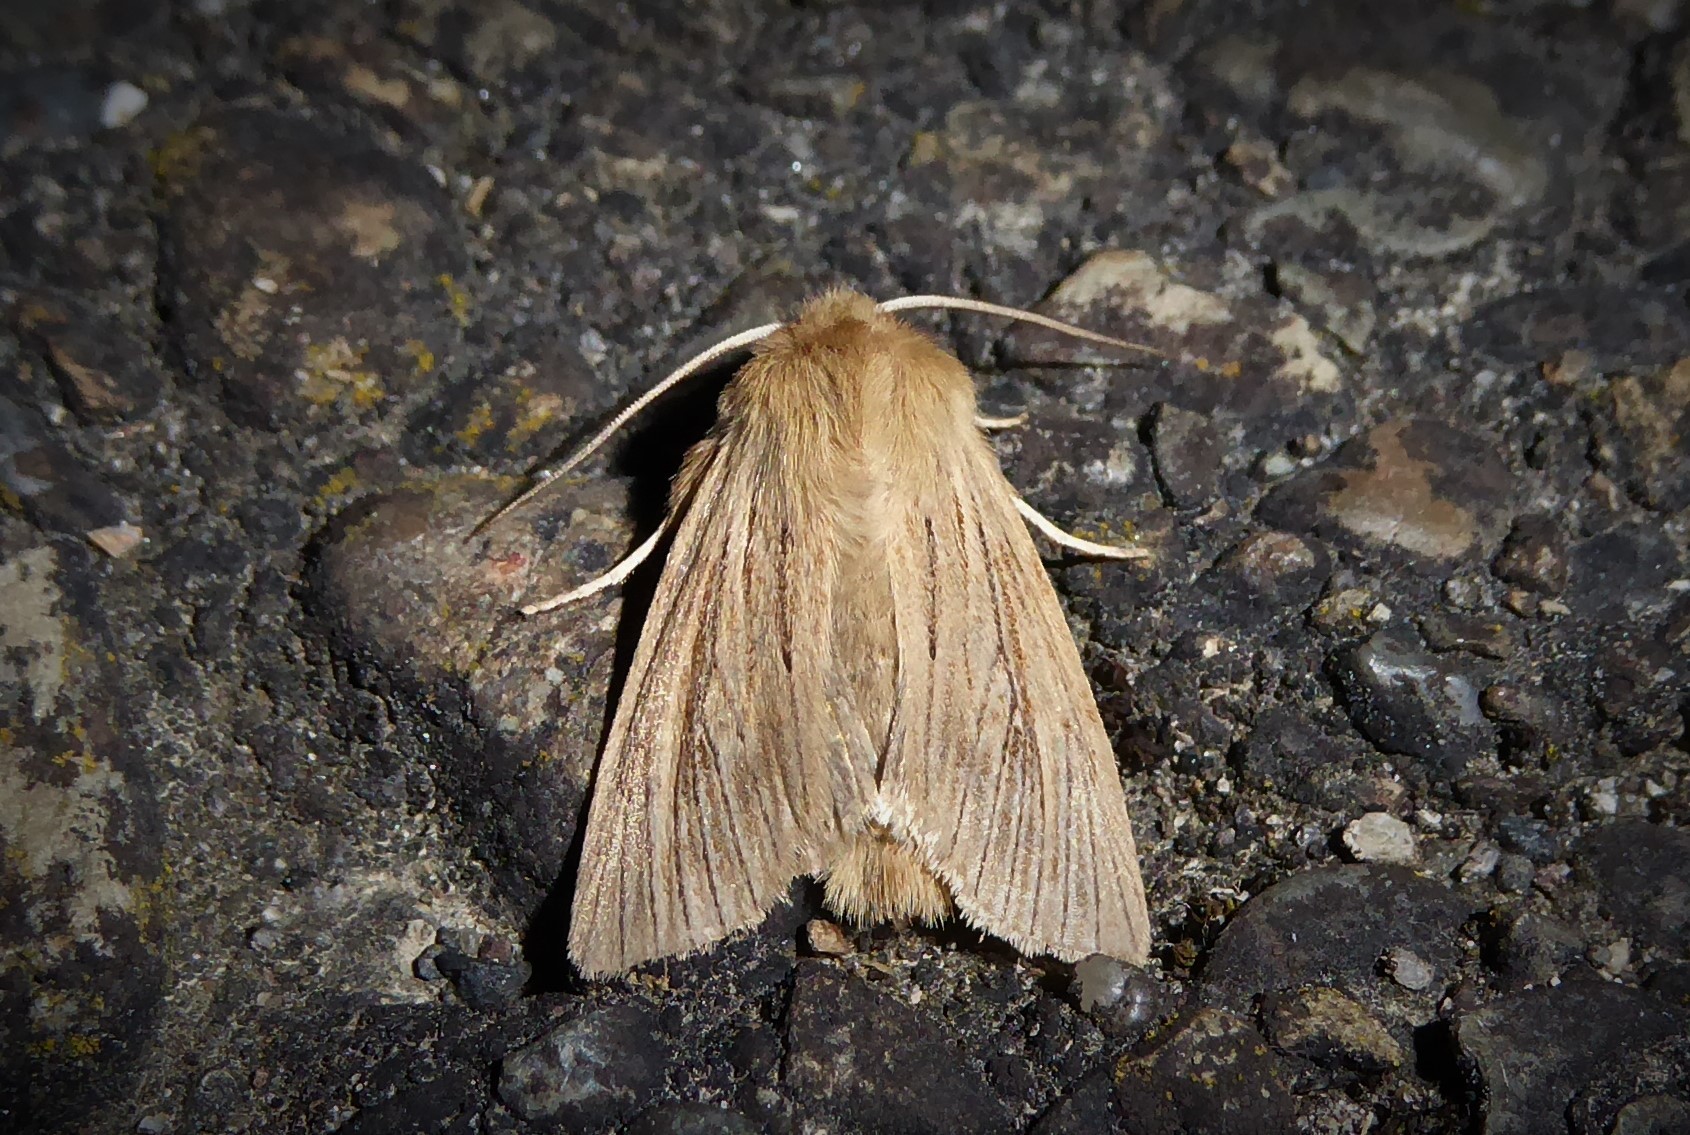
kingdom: Animalia
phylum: Arthropoda
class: Insecta
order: Lepidoptera
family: Noctuidae
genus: Ichneutica
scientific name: Ichneutica arotis
